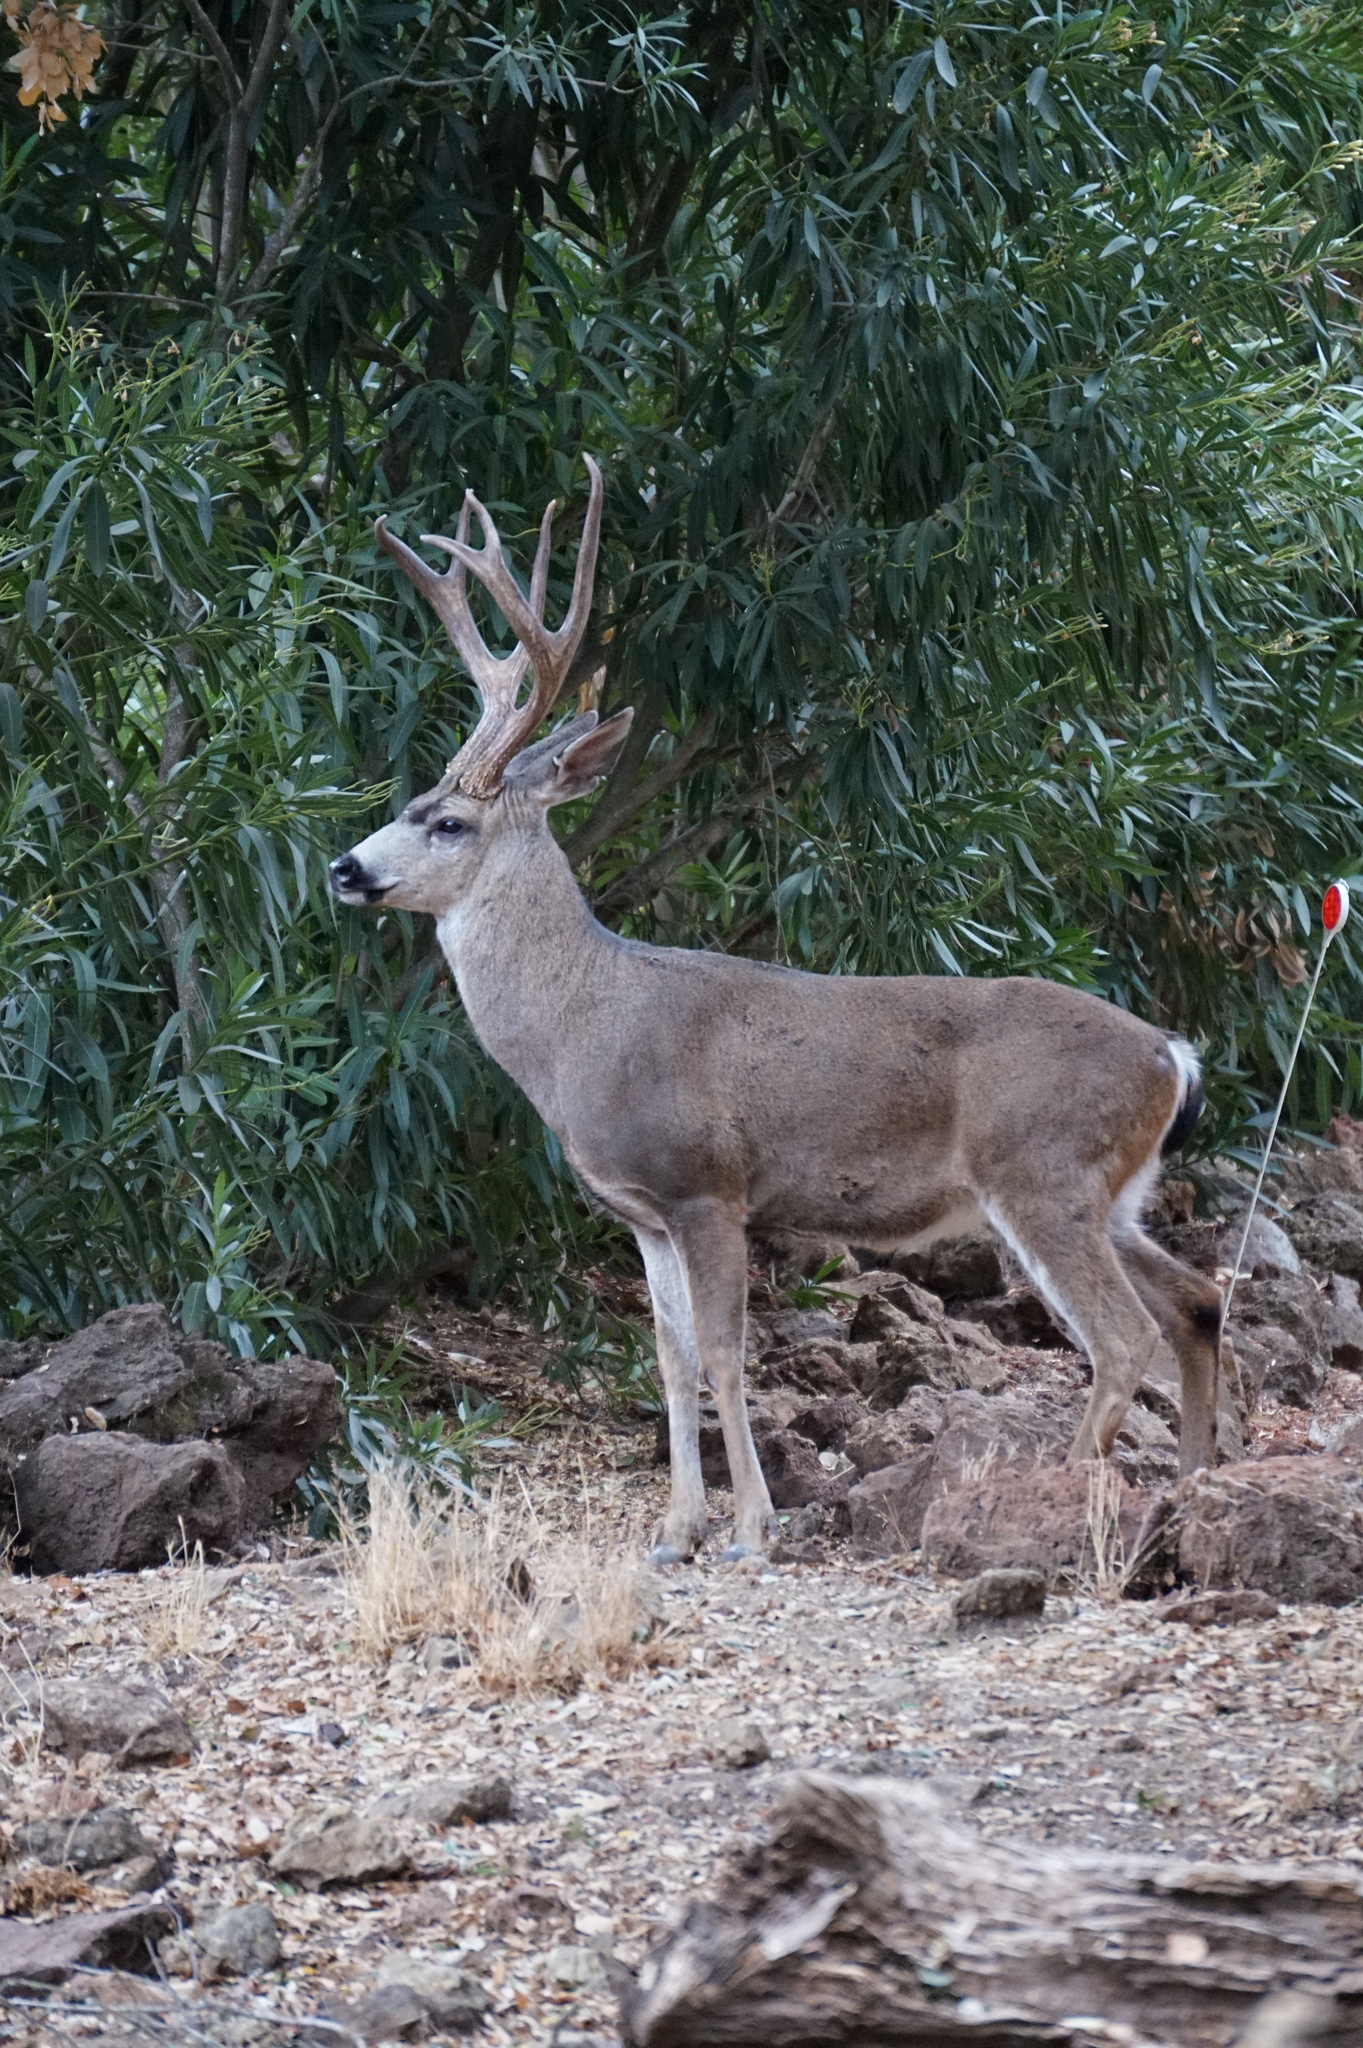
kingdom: Animalia
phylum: Chordata
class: Mammalia
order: Artiodactyla
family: Cervidae
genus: Odocoileus
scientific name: Odocoileus hemionus
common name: Mule deer
